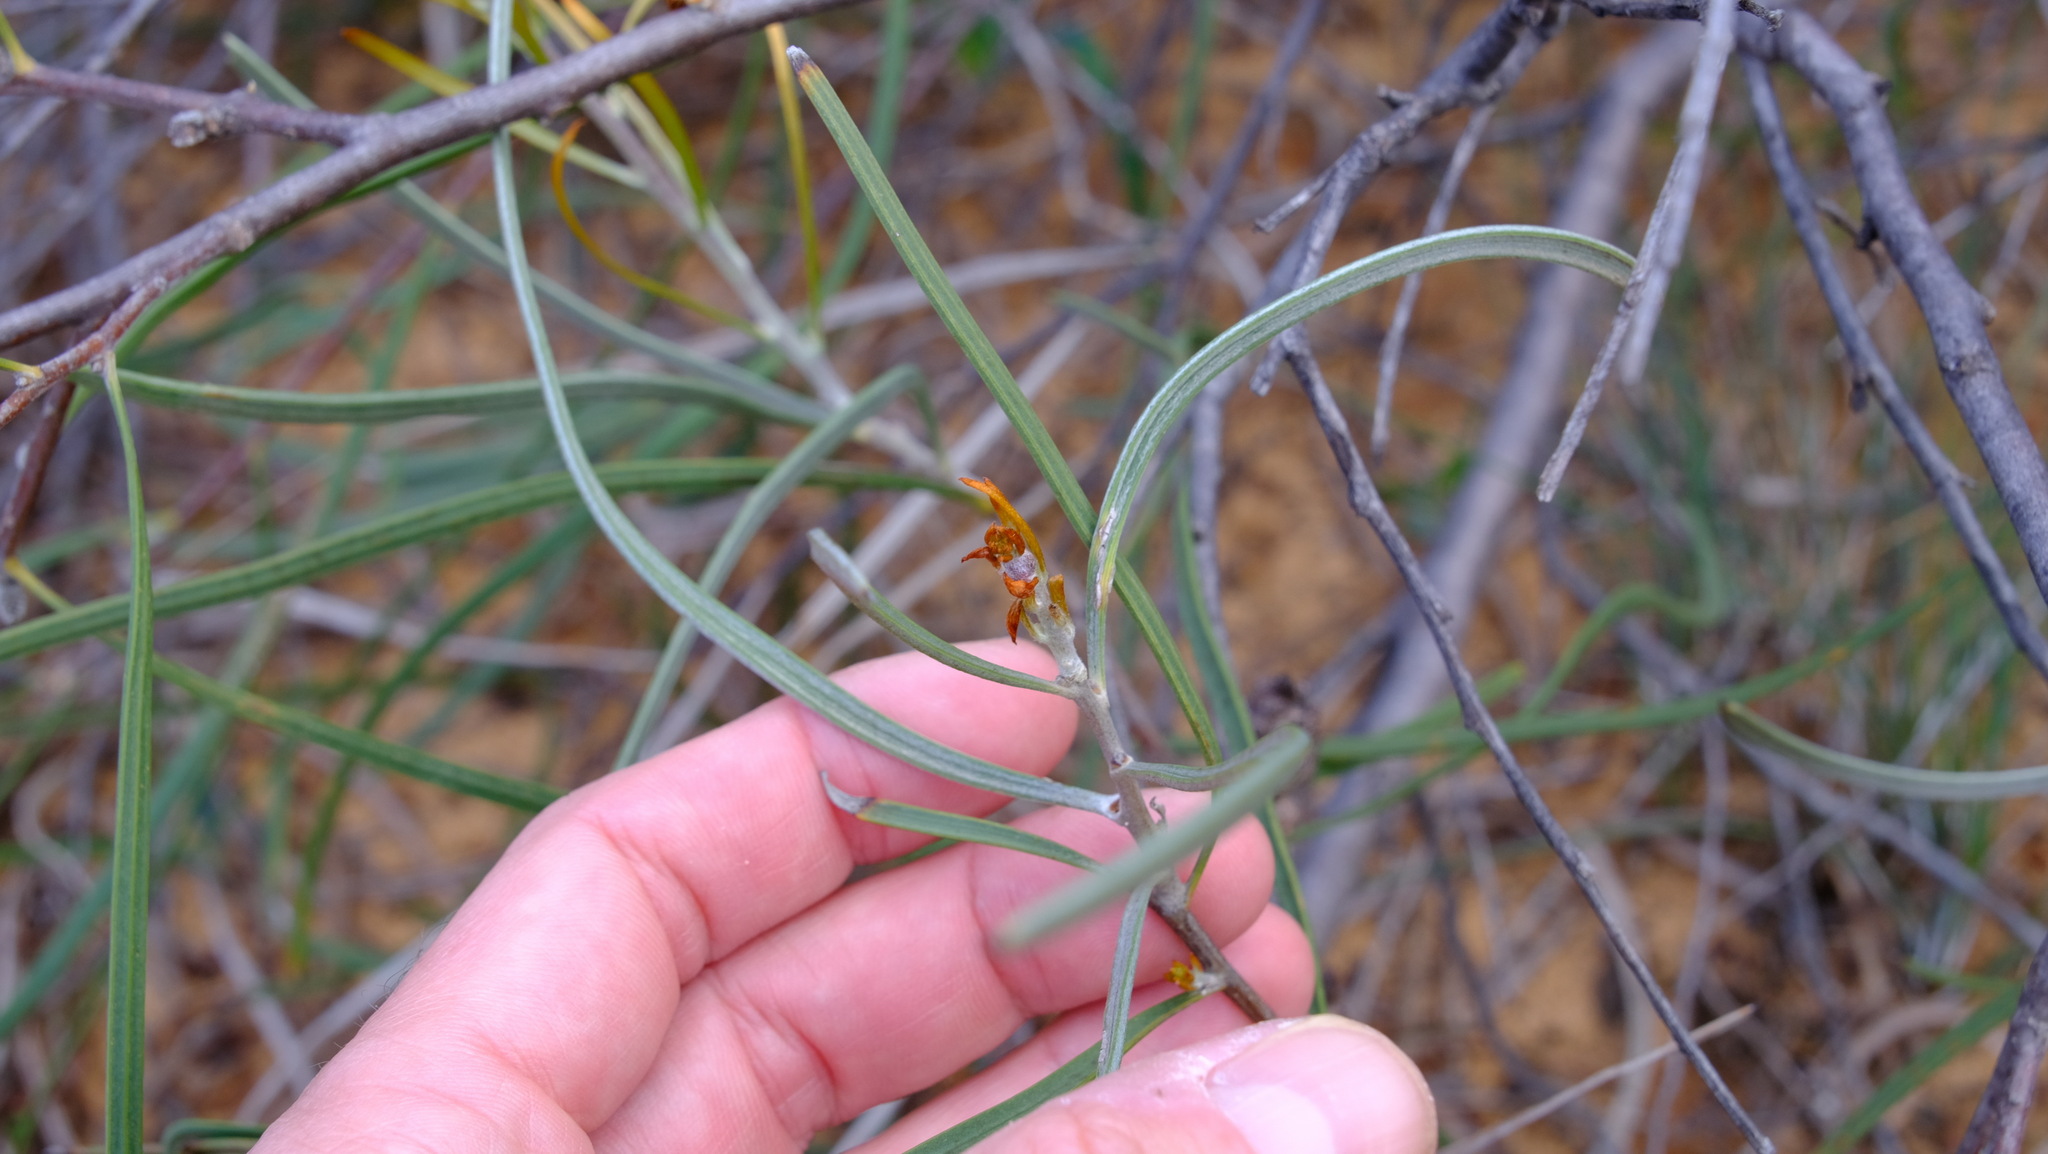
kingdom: Plantae
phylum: Tracheophyta
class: Magnoliopsida
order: Proteales
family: Proteaceae
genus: Hakea
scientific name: Hakea pycnoneura
